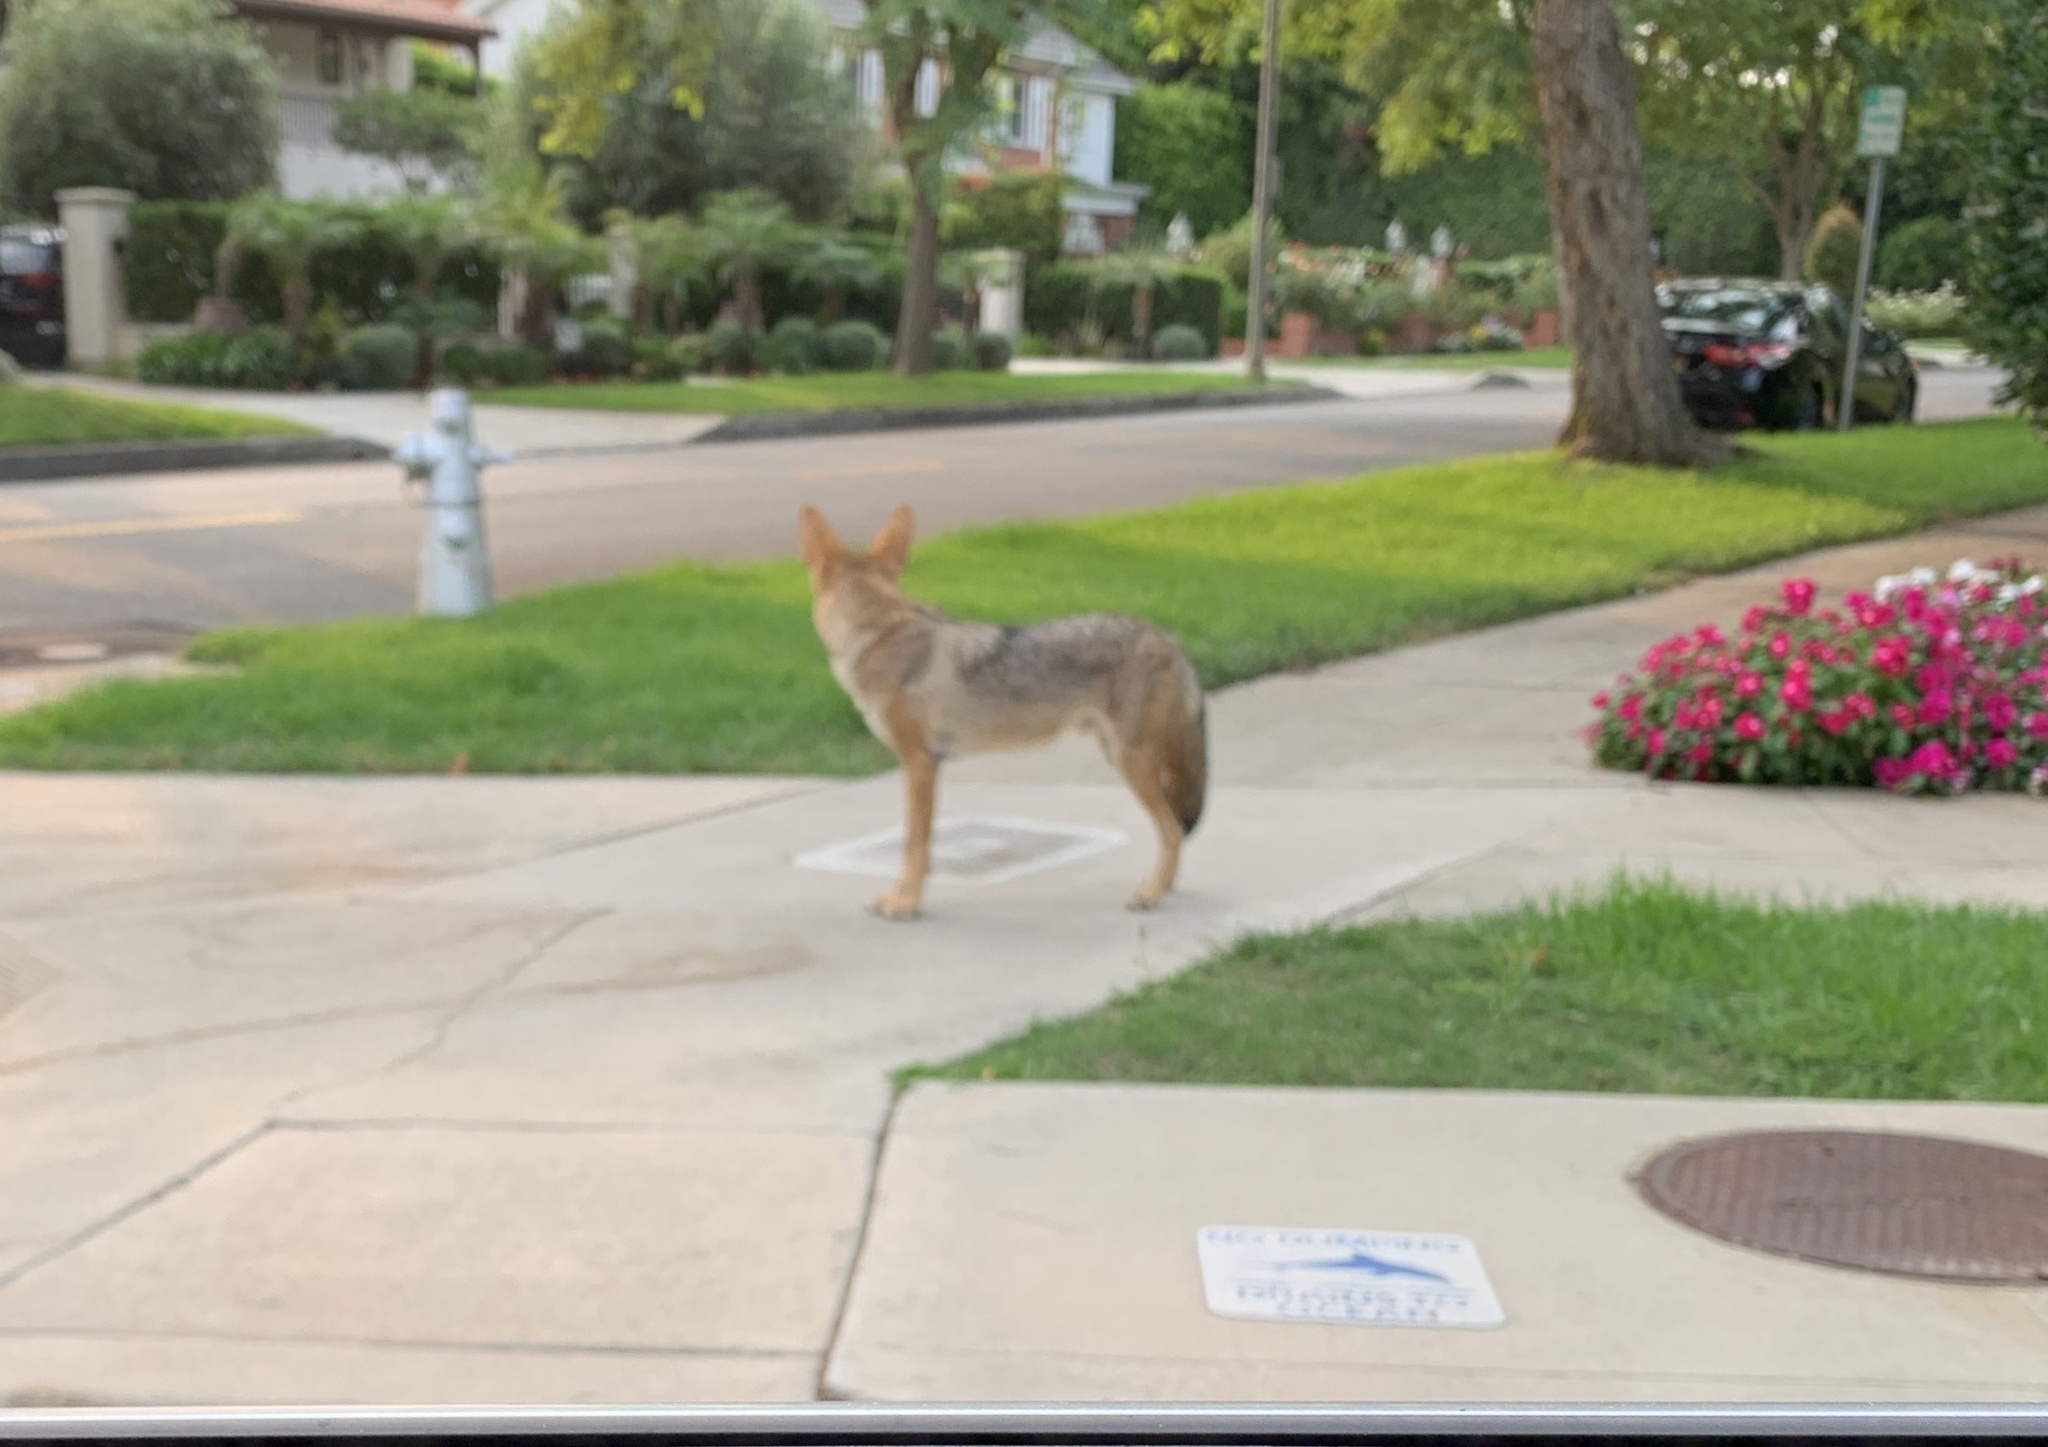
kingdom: Animalia
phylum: Chordata
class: Mammalia
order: Carnivora
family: Canidae
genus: Canis
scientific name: Canis latrans
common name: Coyote
